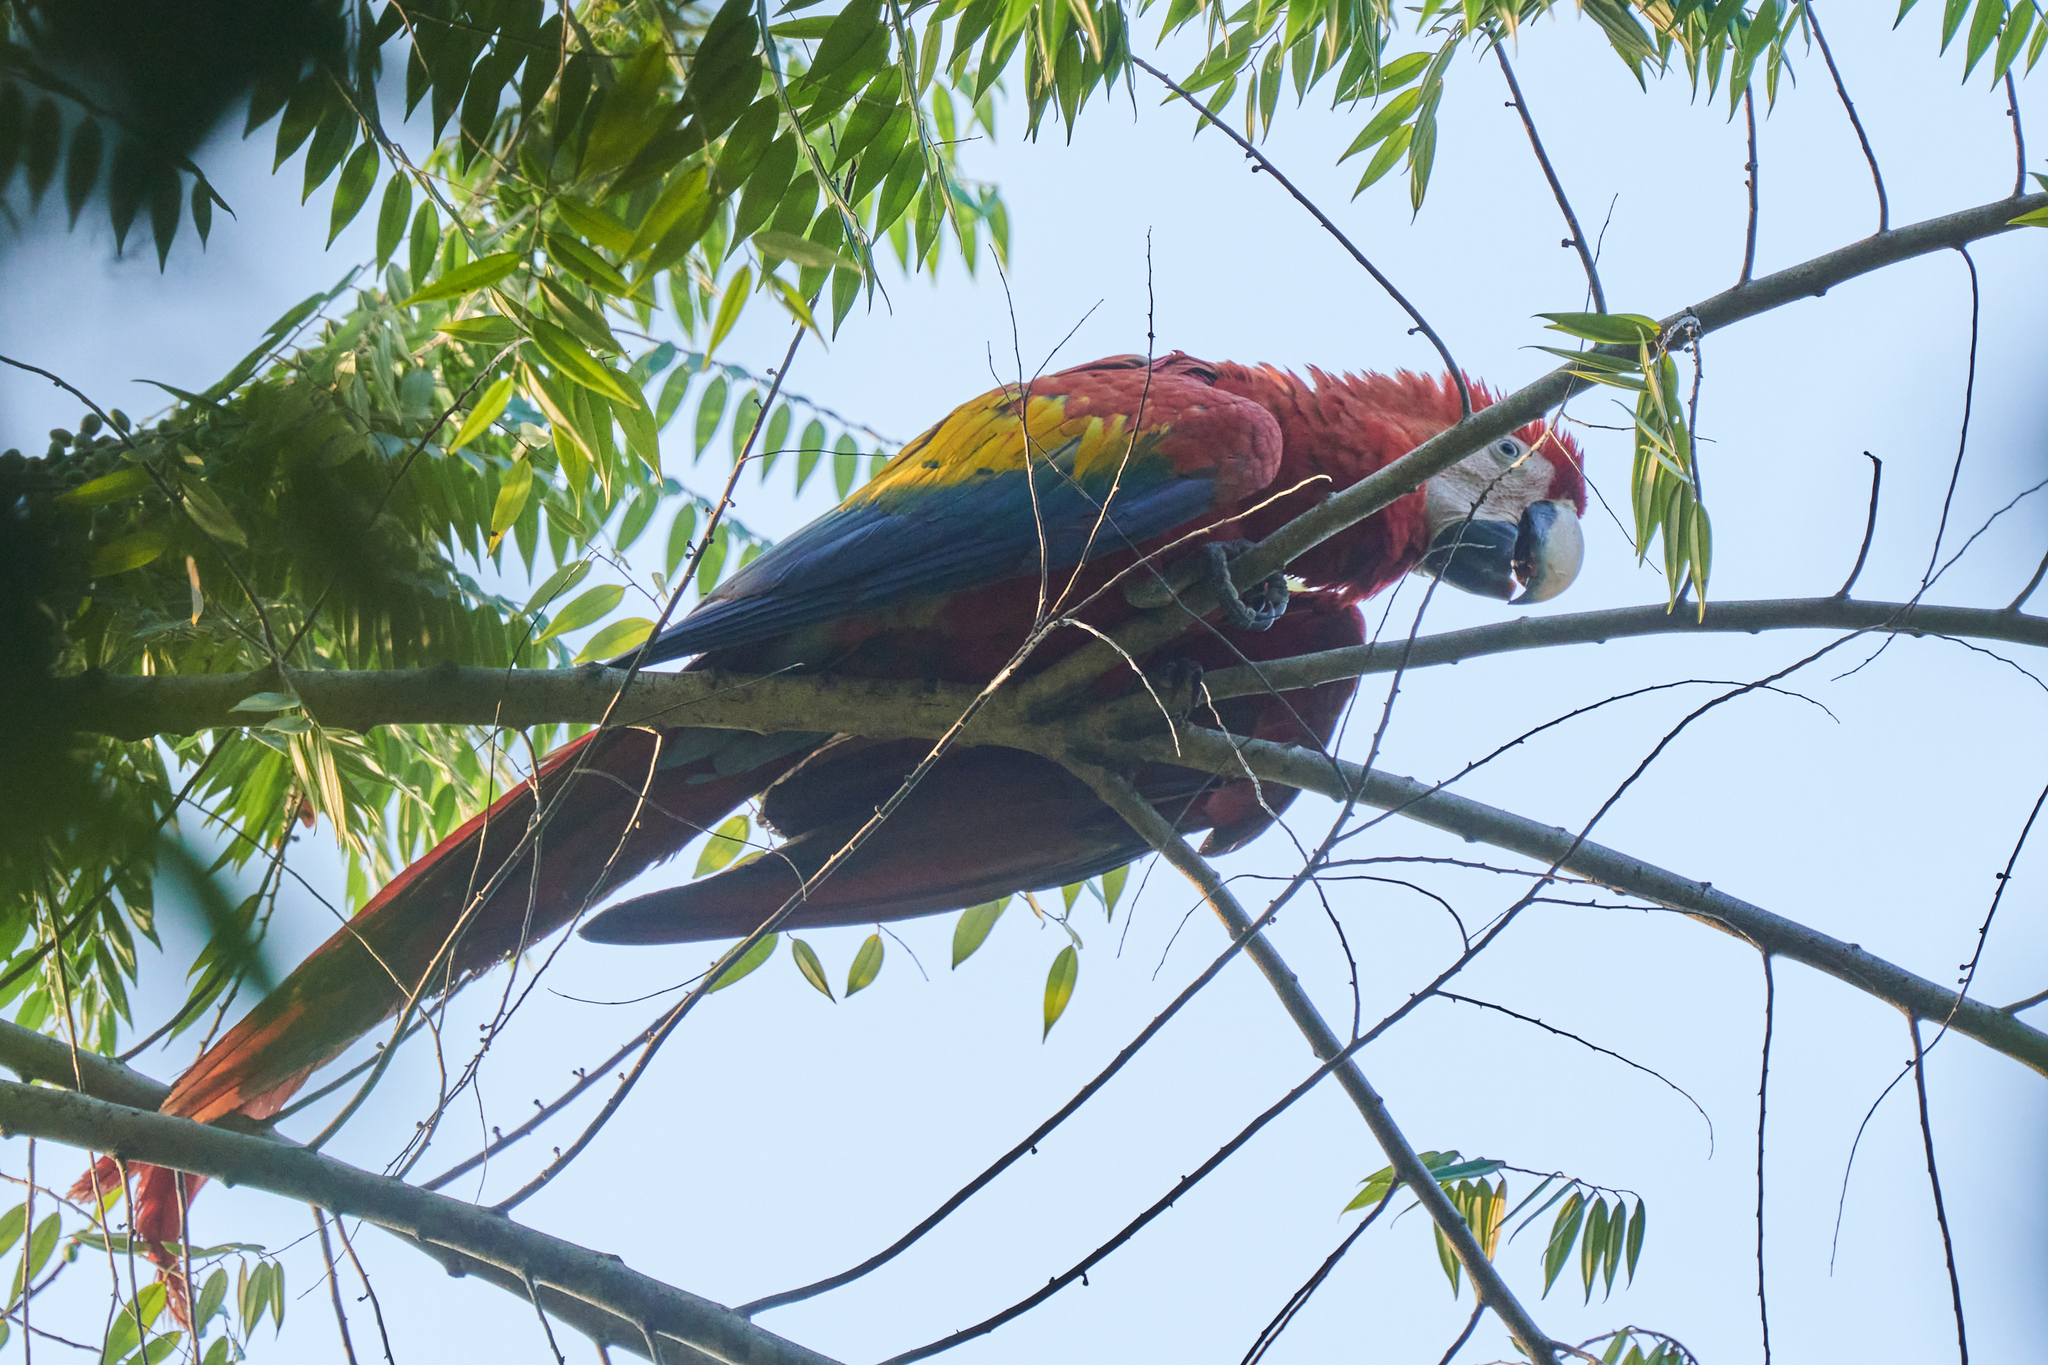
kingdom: Animalia
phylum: Chordata
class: Aves
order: Psittaciformes
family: Psittacidae
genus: Ara
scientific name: Ara macao
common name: Scarlet macaw
